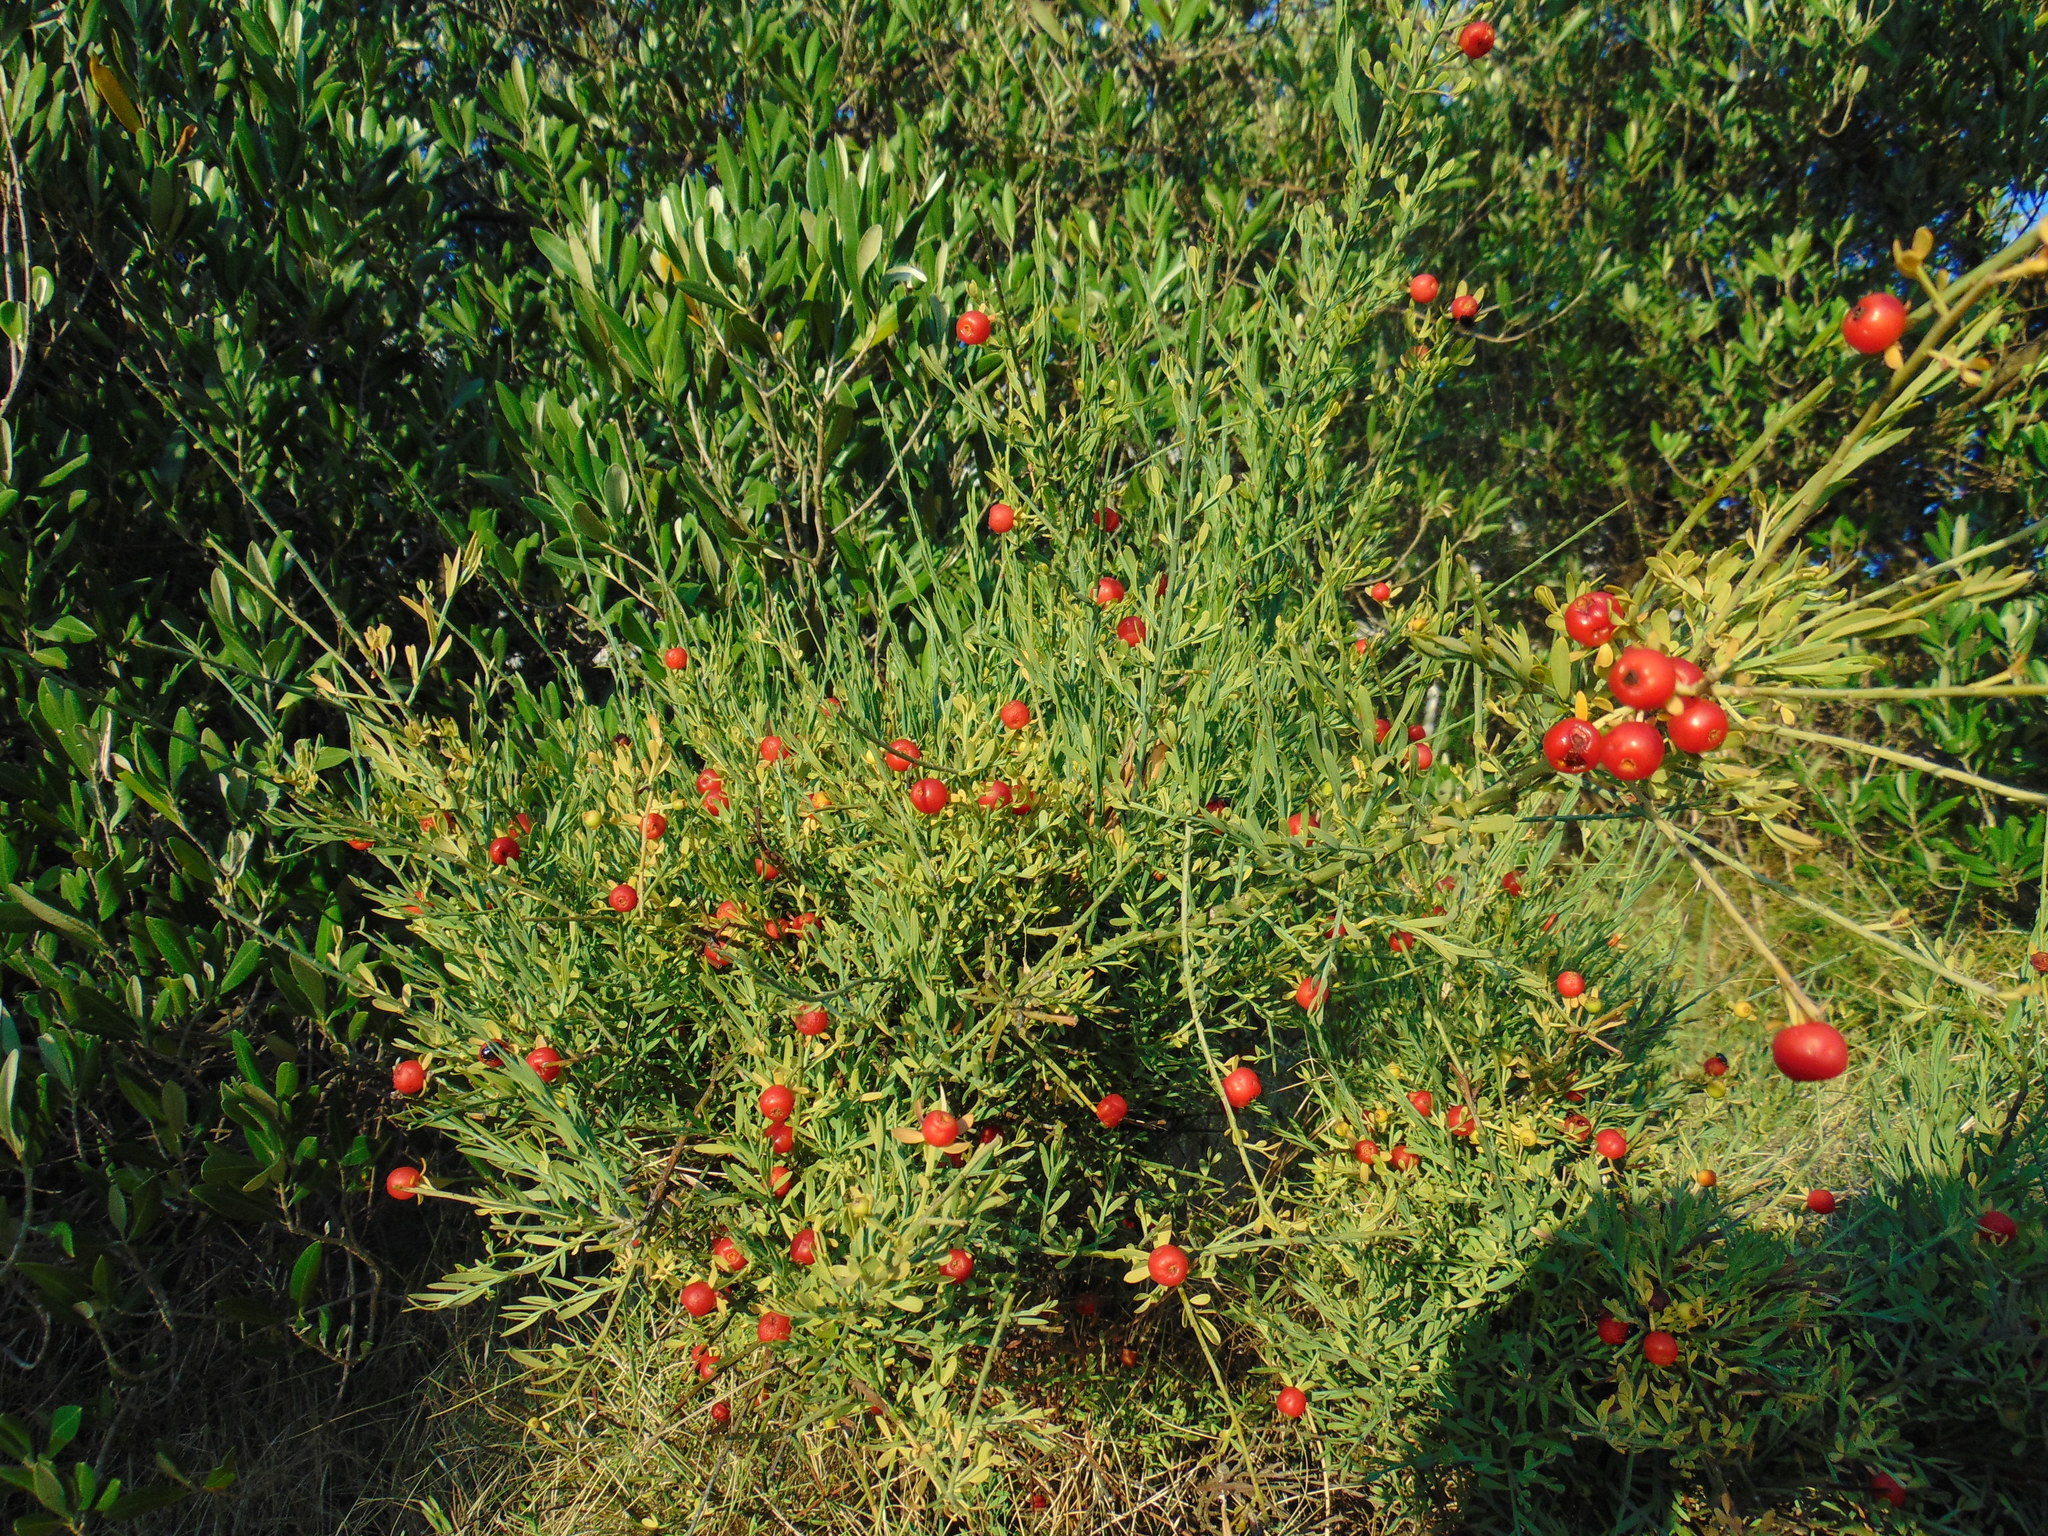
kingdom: Plantae
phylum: Tracheophyta
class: Magnoliopsida
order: Santalales
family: Santalaceae
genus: Osyris
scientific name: Osyris alba
